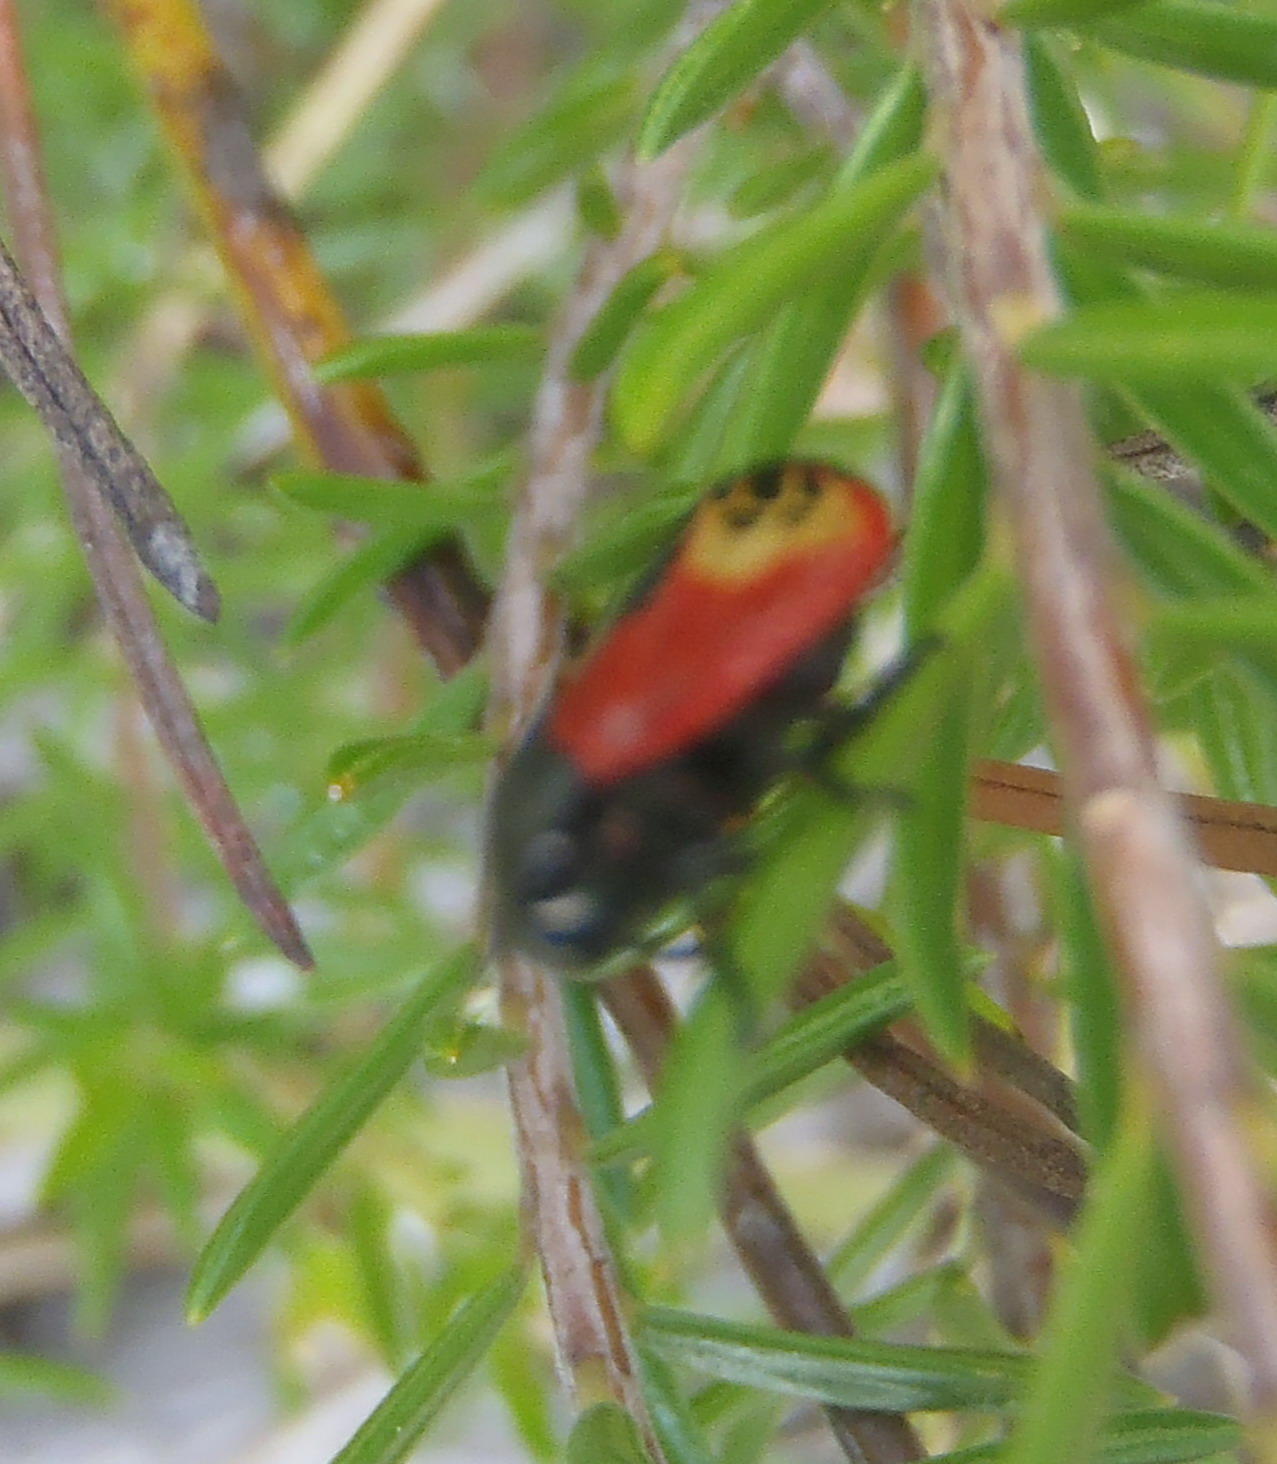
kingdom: Animalia
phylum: Arthropoda
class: Insecta
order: Hemiptera
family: Cercopidae
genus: Rhinaulax
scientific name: Rhinaulax analis
